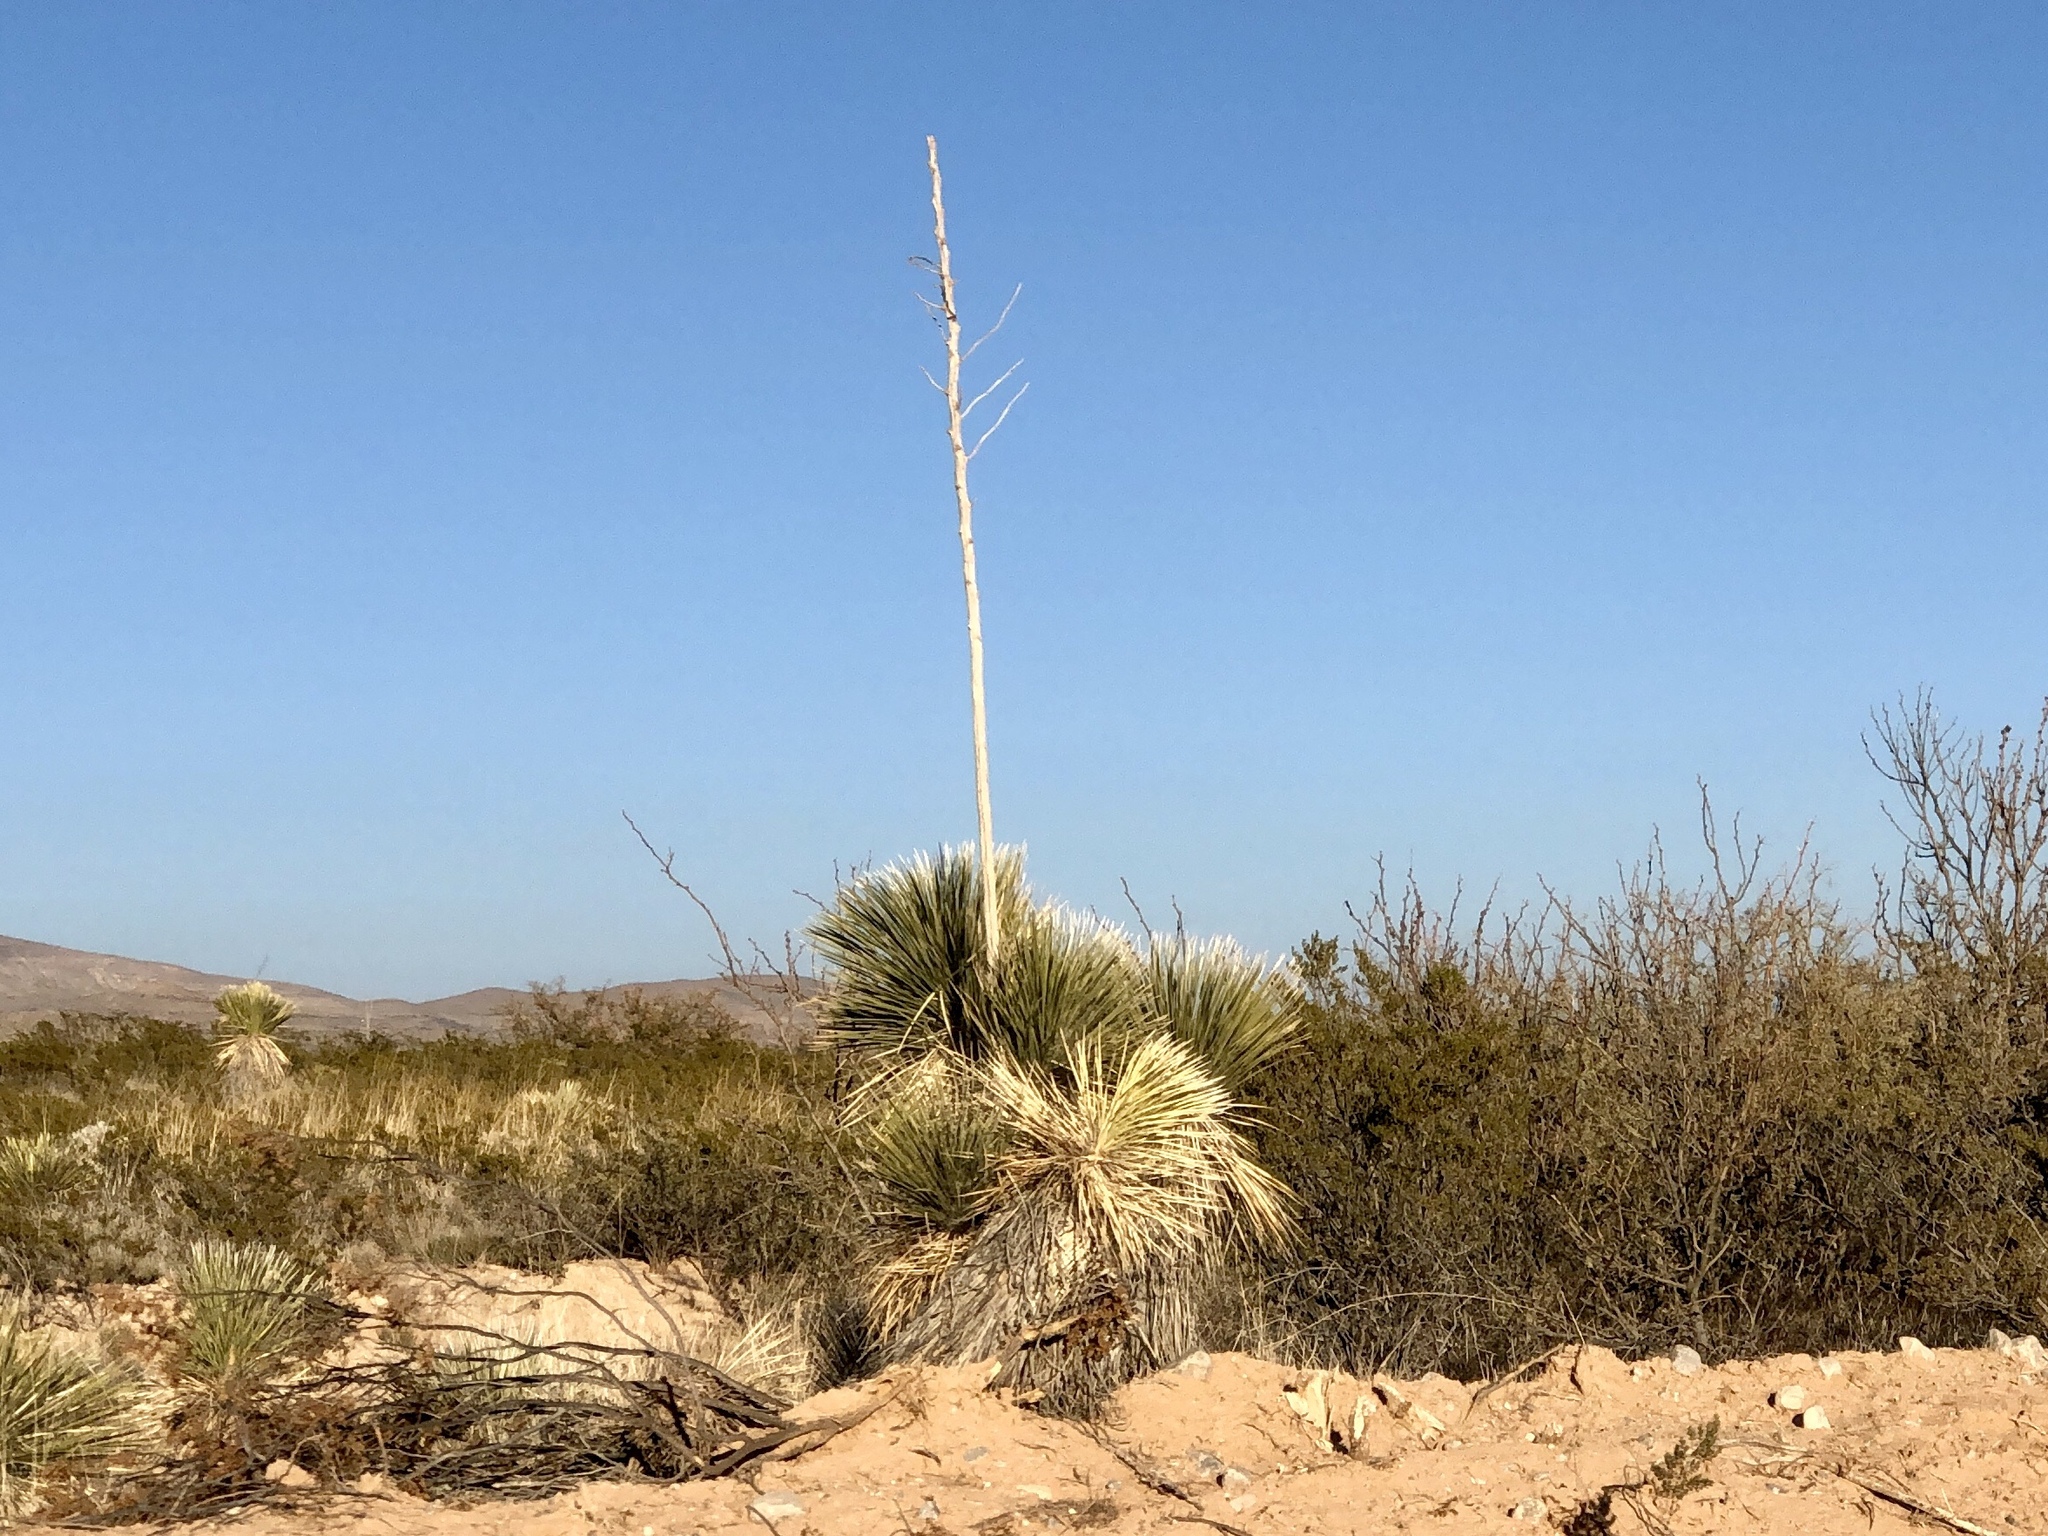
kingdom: Plantae
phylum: Tracheophyta
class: Liliopsida
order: Asparagales
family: Asparagaceae
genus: Yucca
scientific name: Yucca elata
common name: Palmella
